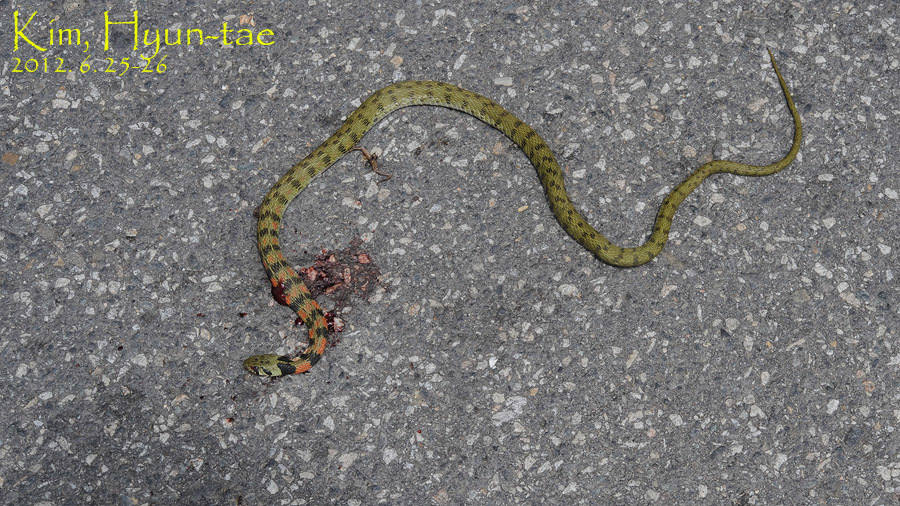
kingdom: Animalia
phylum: Chordata
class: Squamata
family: Colubridae
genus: Rhabdophis
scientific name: Rhabdophis tigrinus
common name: Tiger keelback
